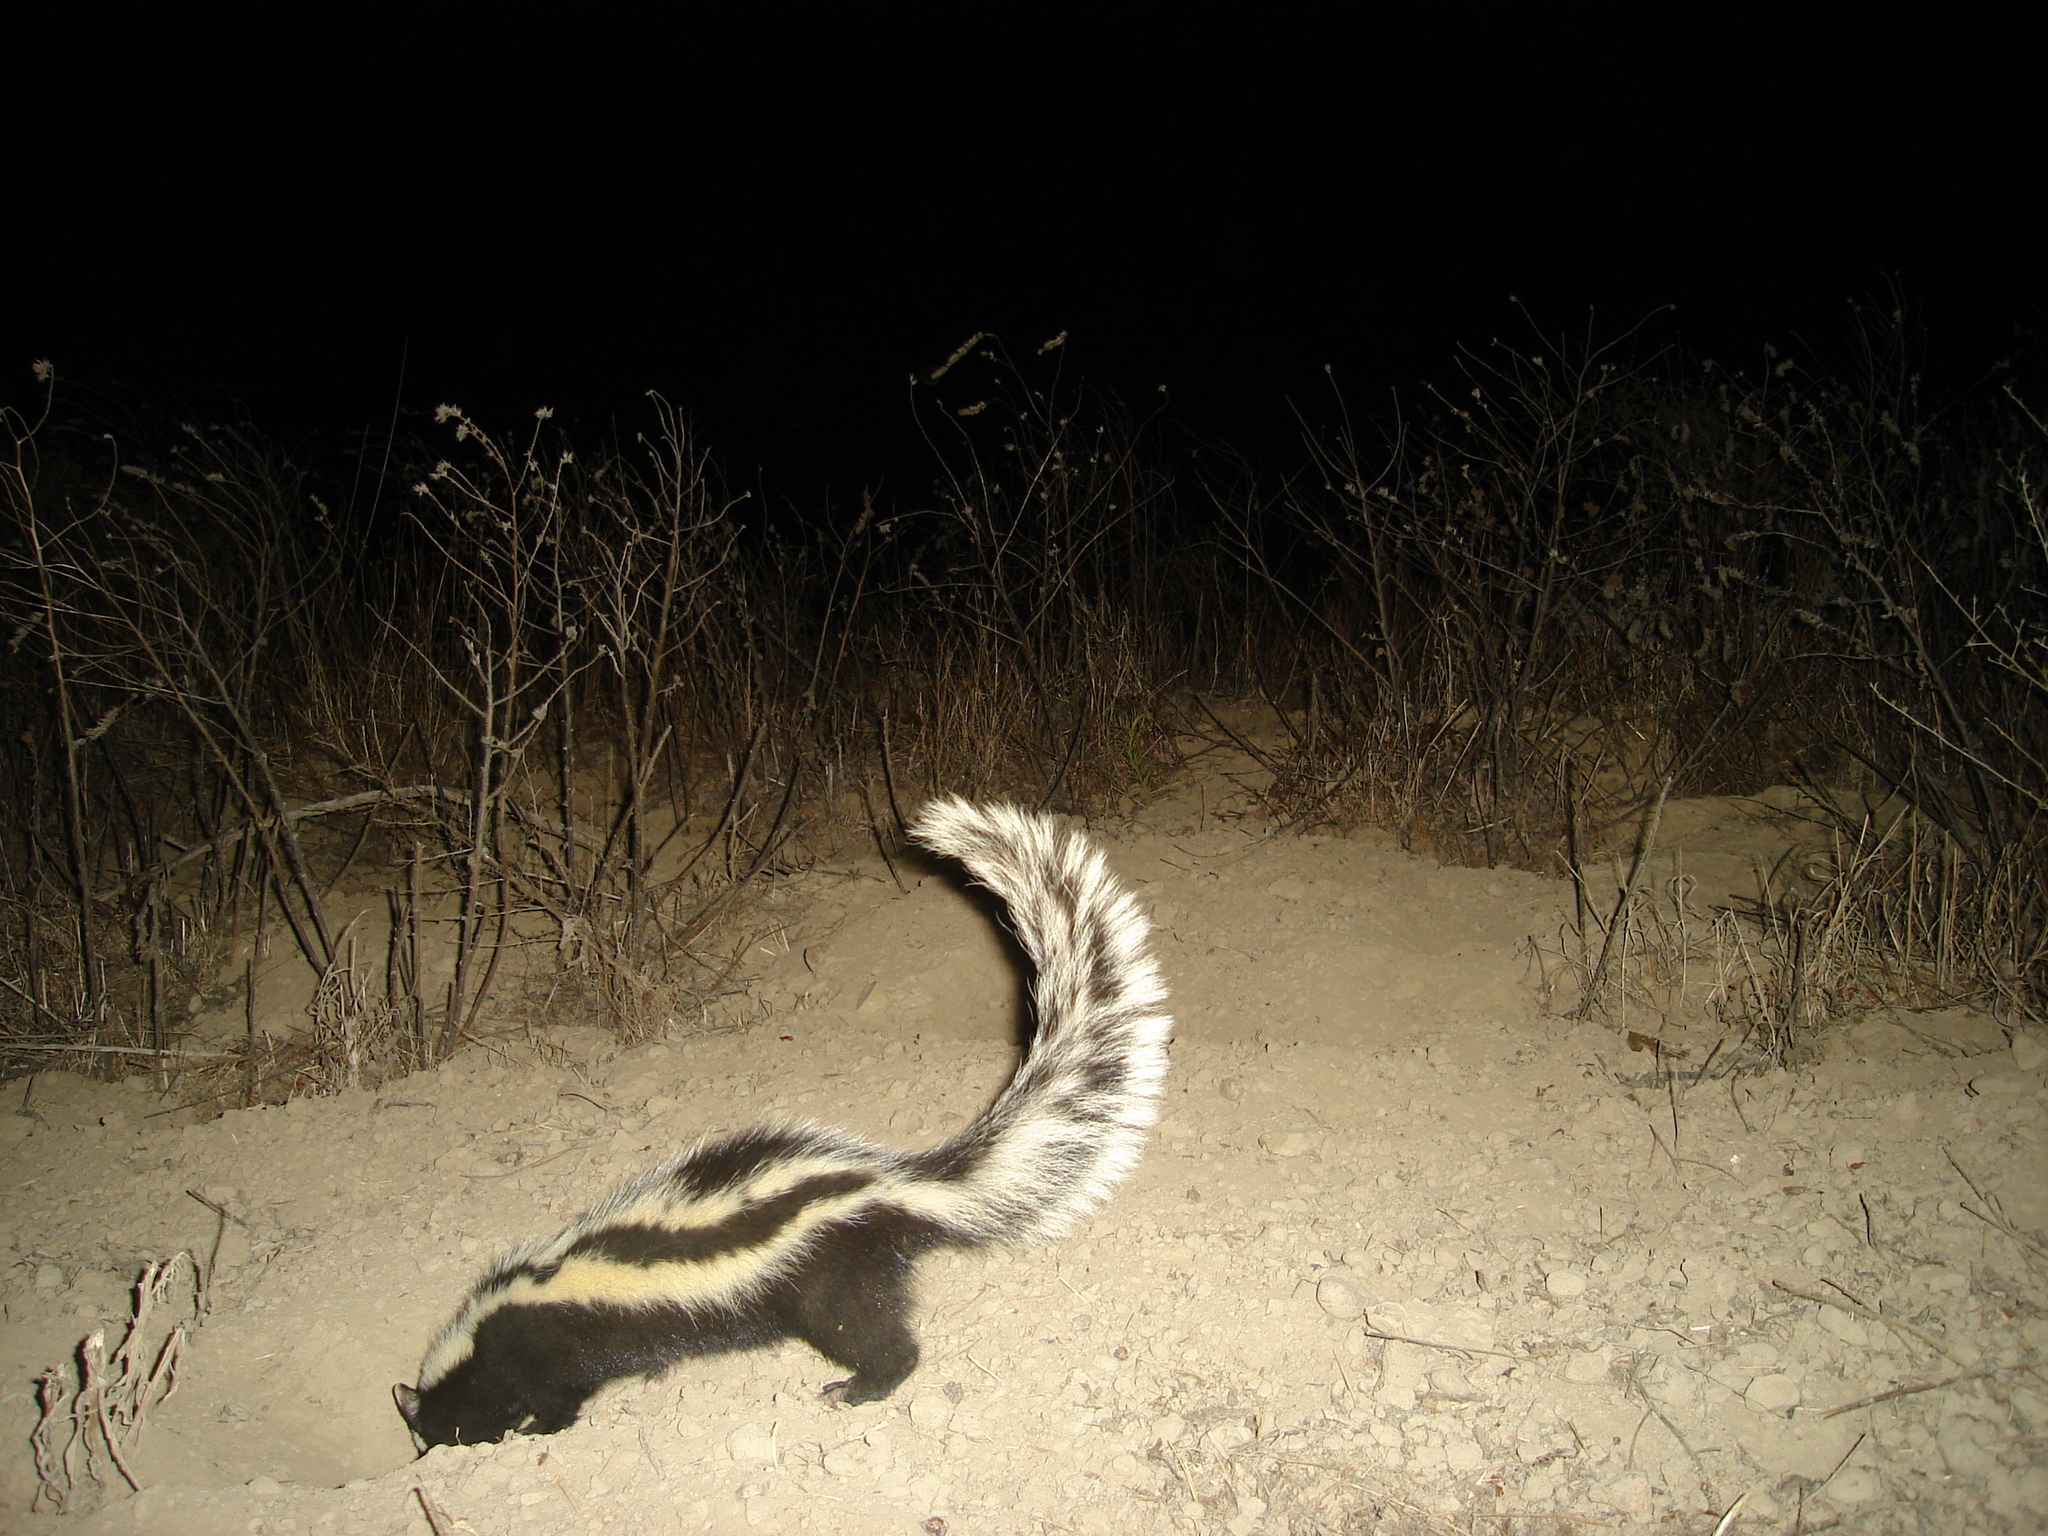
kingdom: Animalia
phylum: Chordata
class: Mammalia
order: Carnivora
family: Mustelidae
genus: Ictonyx
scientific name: Ictonyx striatus
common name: Striped polecat
